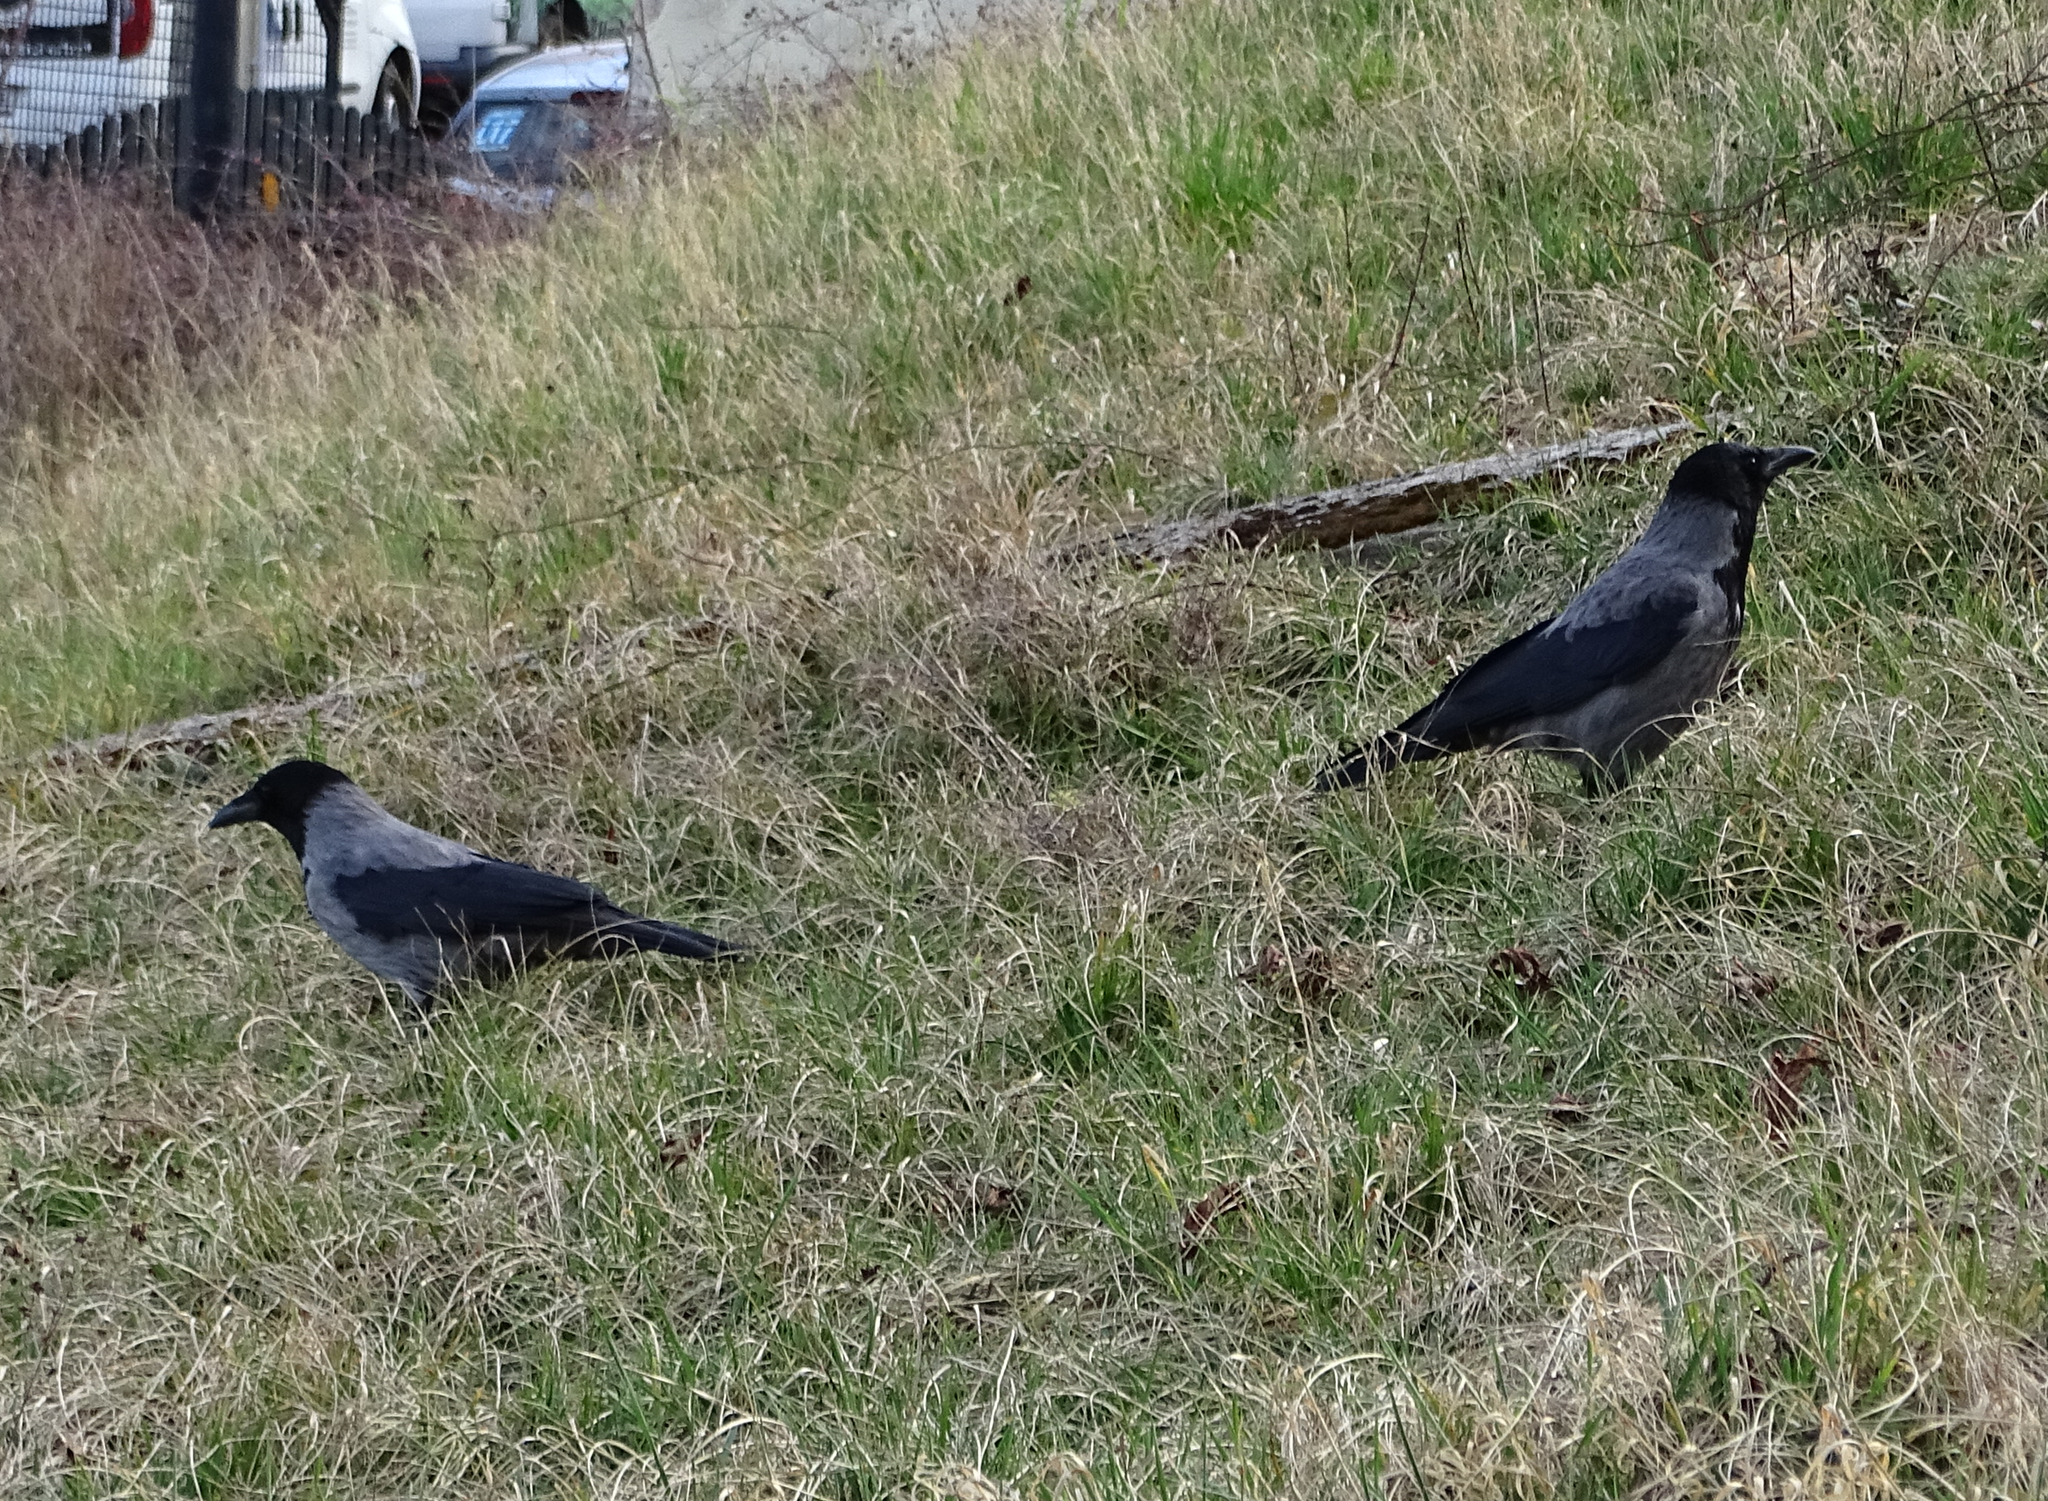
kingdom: Animalia
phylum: Chordata
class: Aves
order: Passeriformes
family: Corvidae
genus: Corvus
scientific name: Corvus
